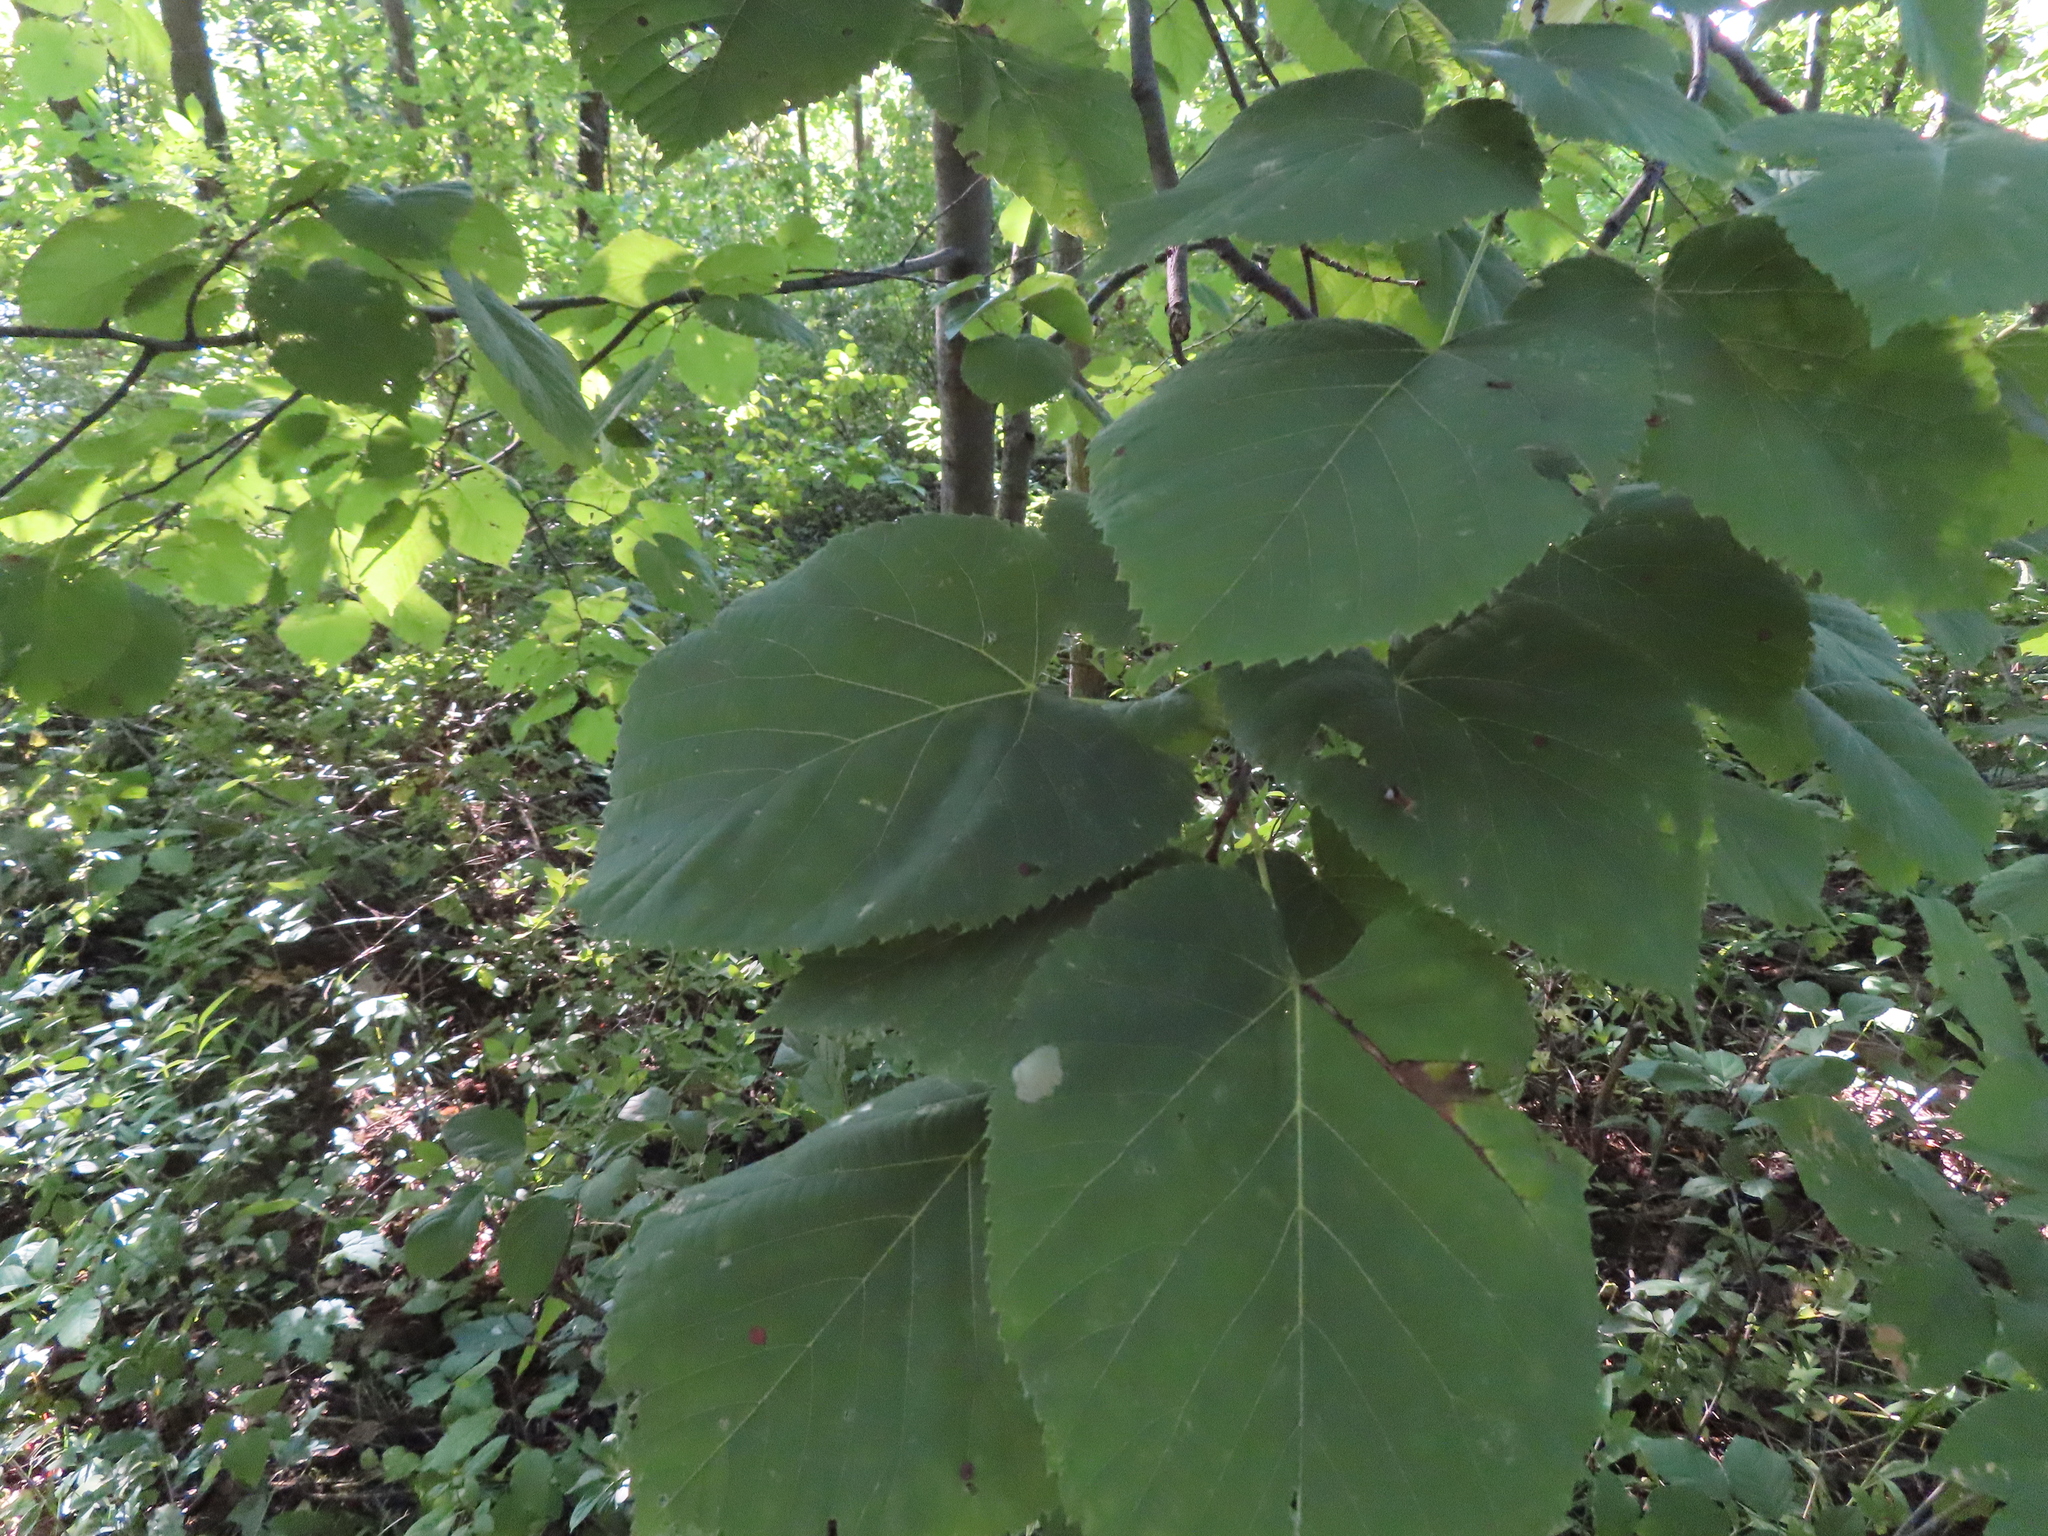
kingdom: Plantae
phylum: Tracheophyta
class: Magnoliopsida
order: Malvales
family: Malvaceae
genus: Tilia
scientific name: Tilia americana
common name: Basswood
